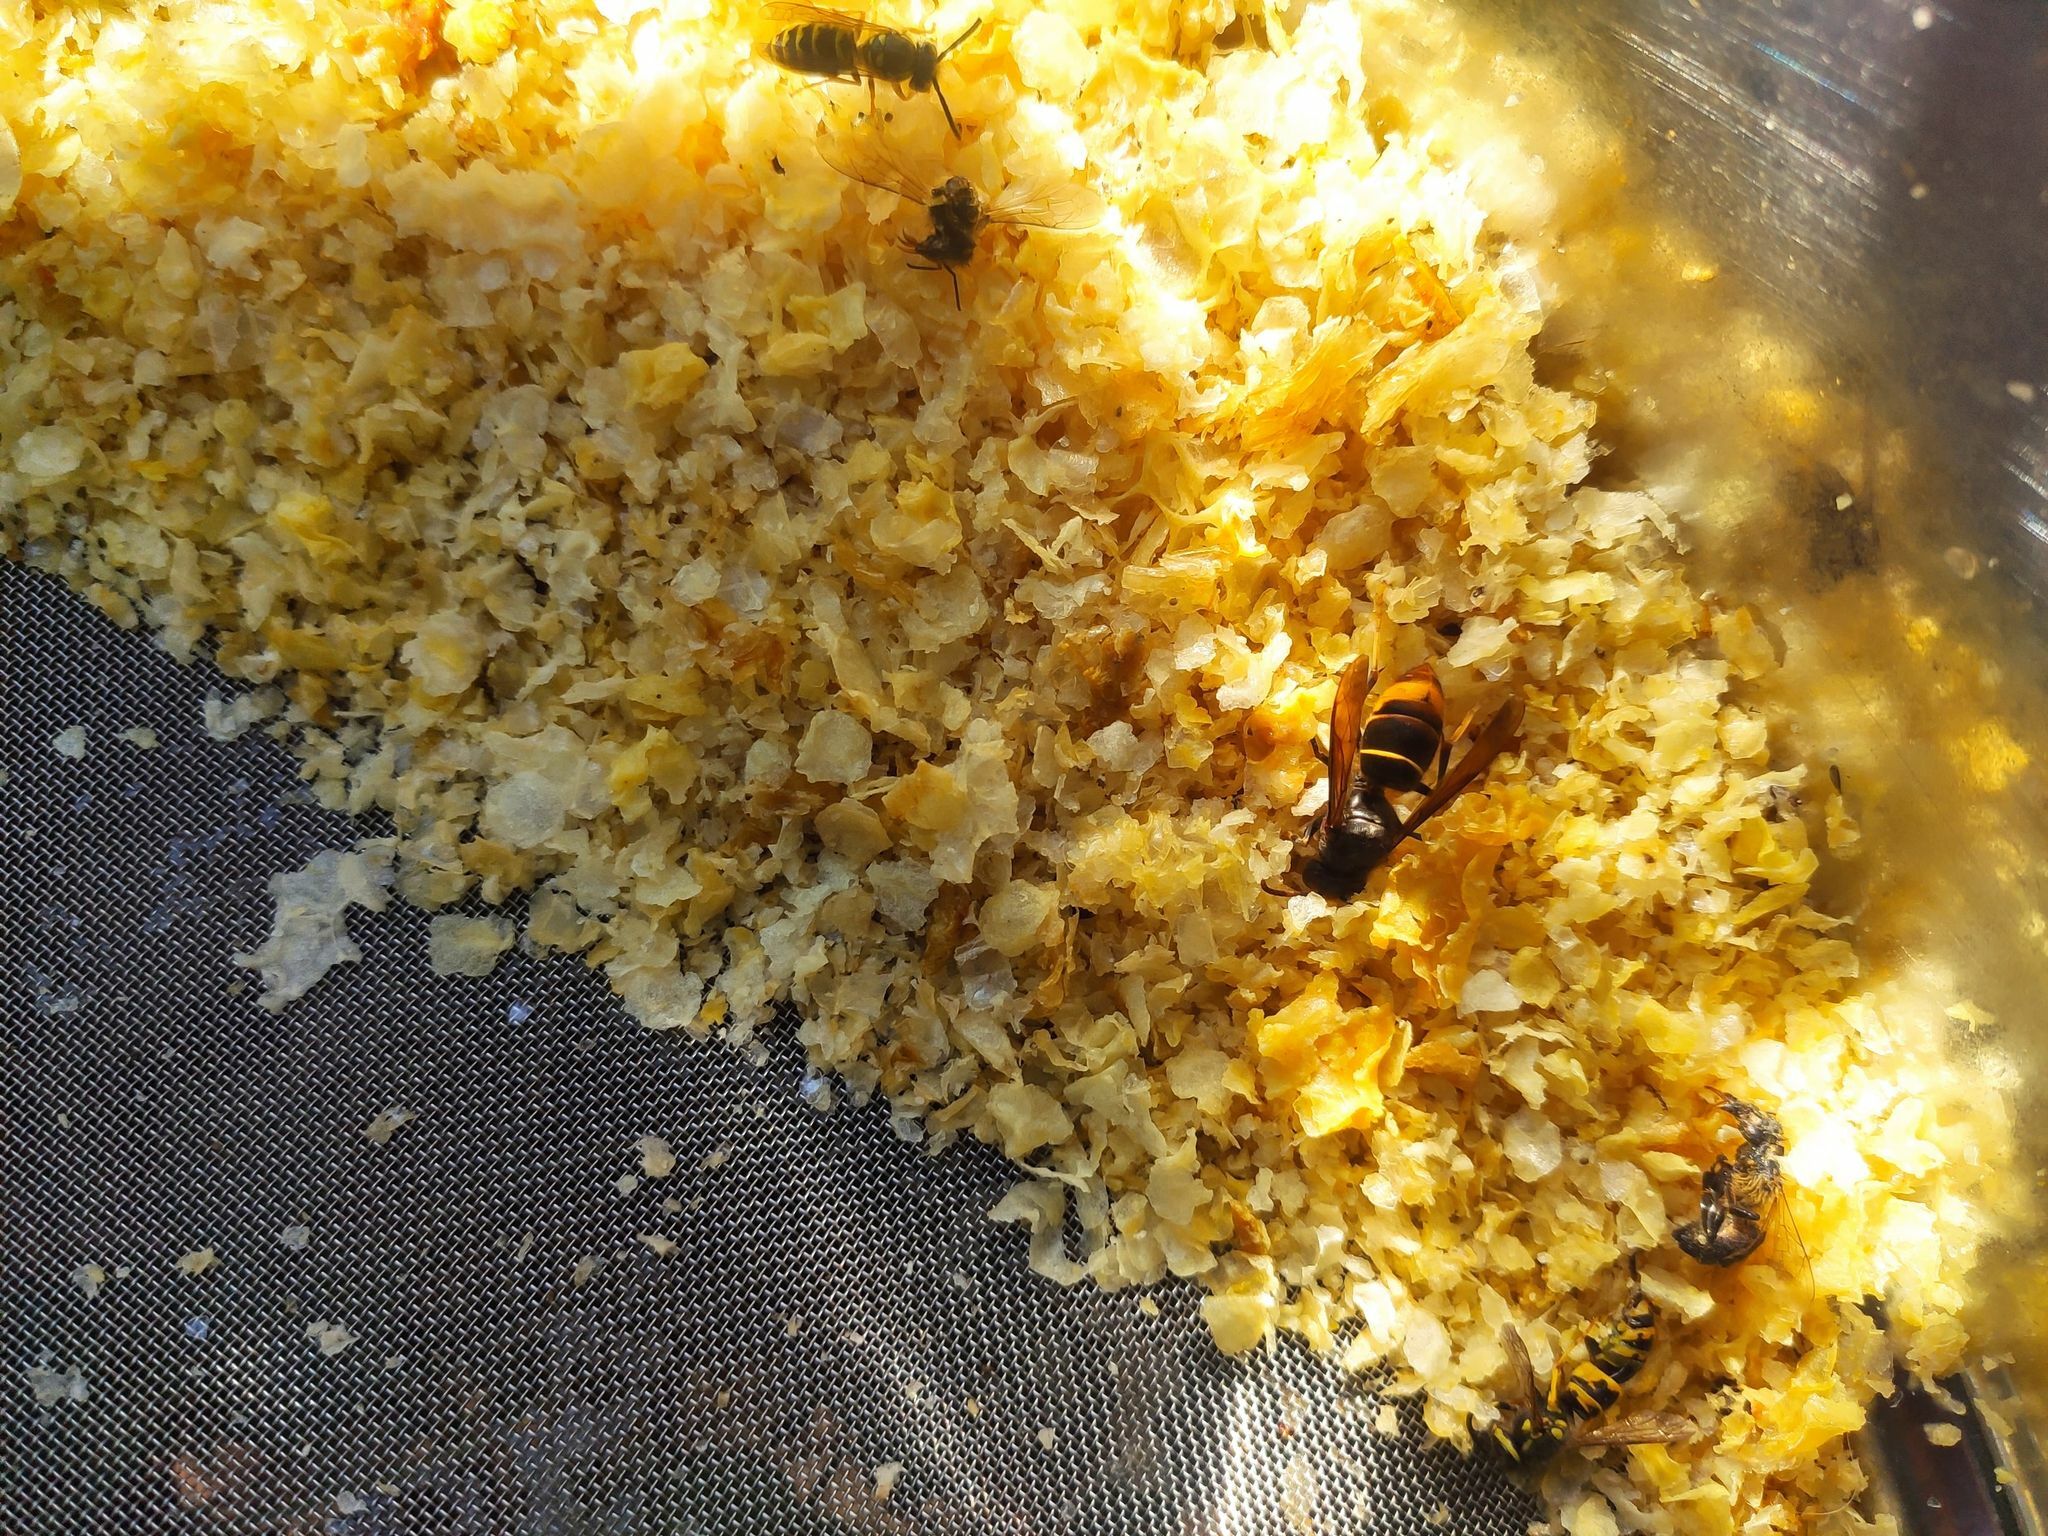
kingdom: Animalia
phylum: Arthropoda
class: Insecta
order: Hymenoptera
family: Vespidae
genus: Vespa
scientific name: Vespa velutina
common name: Asian hornet
